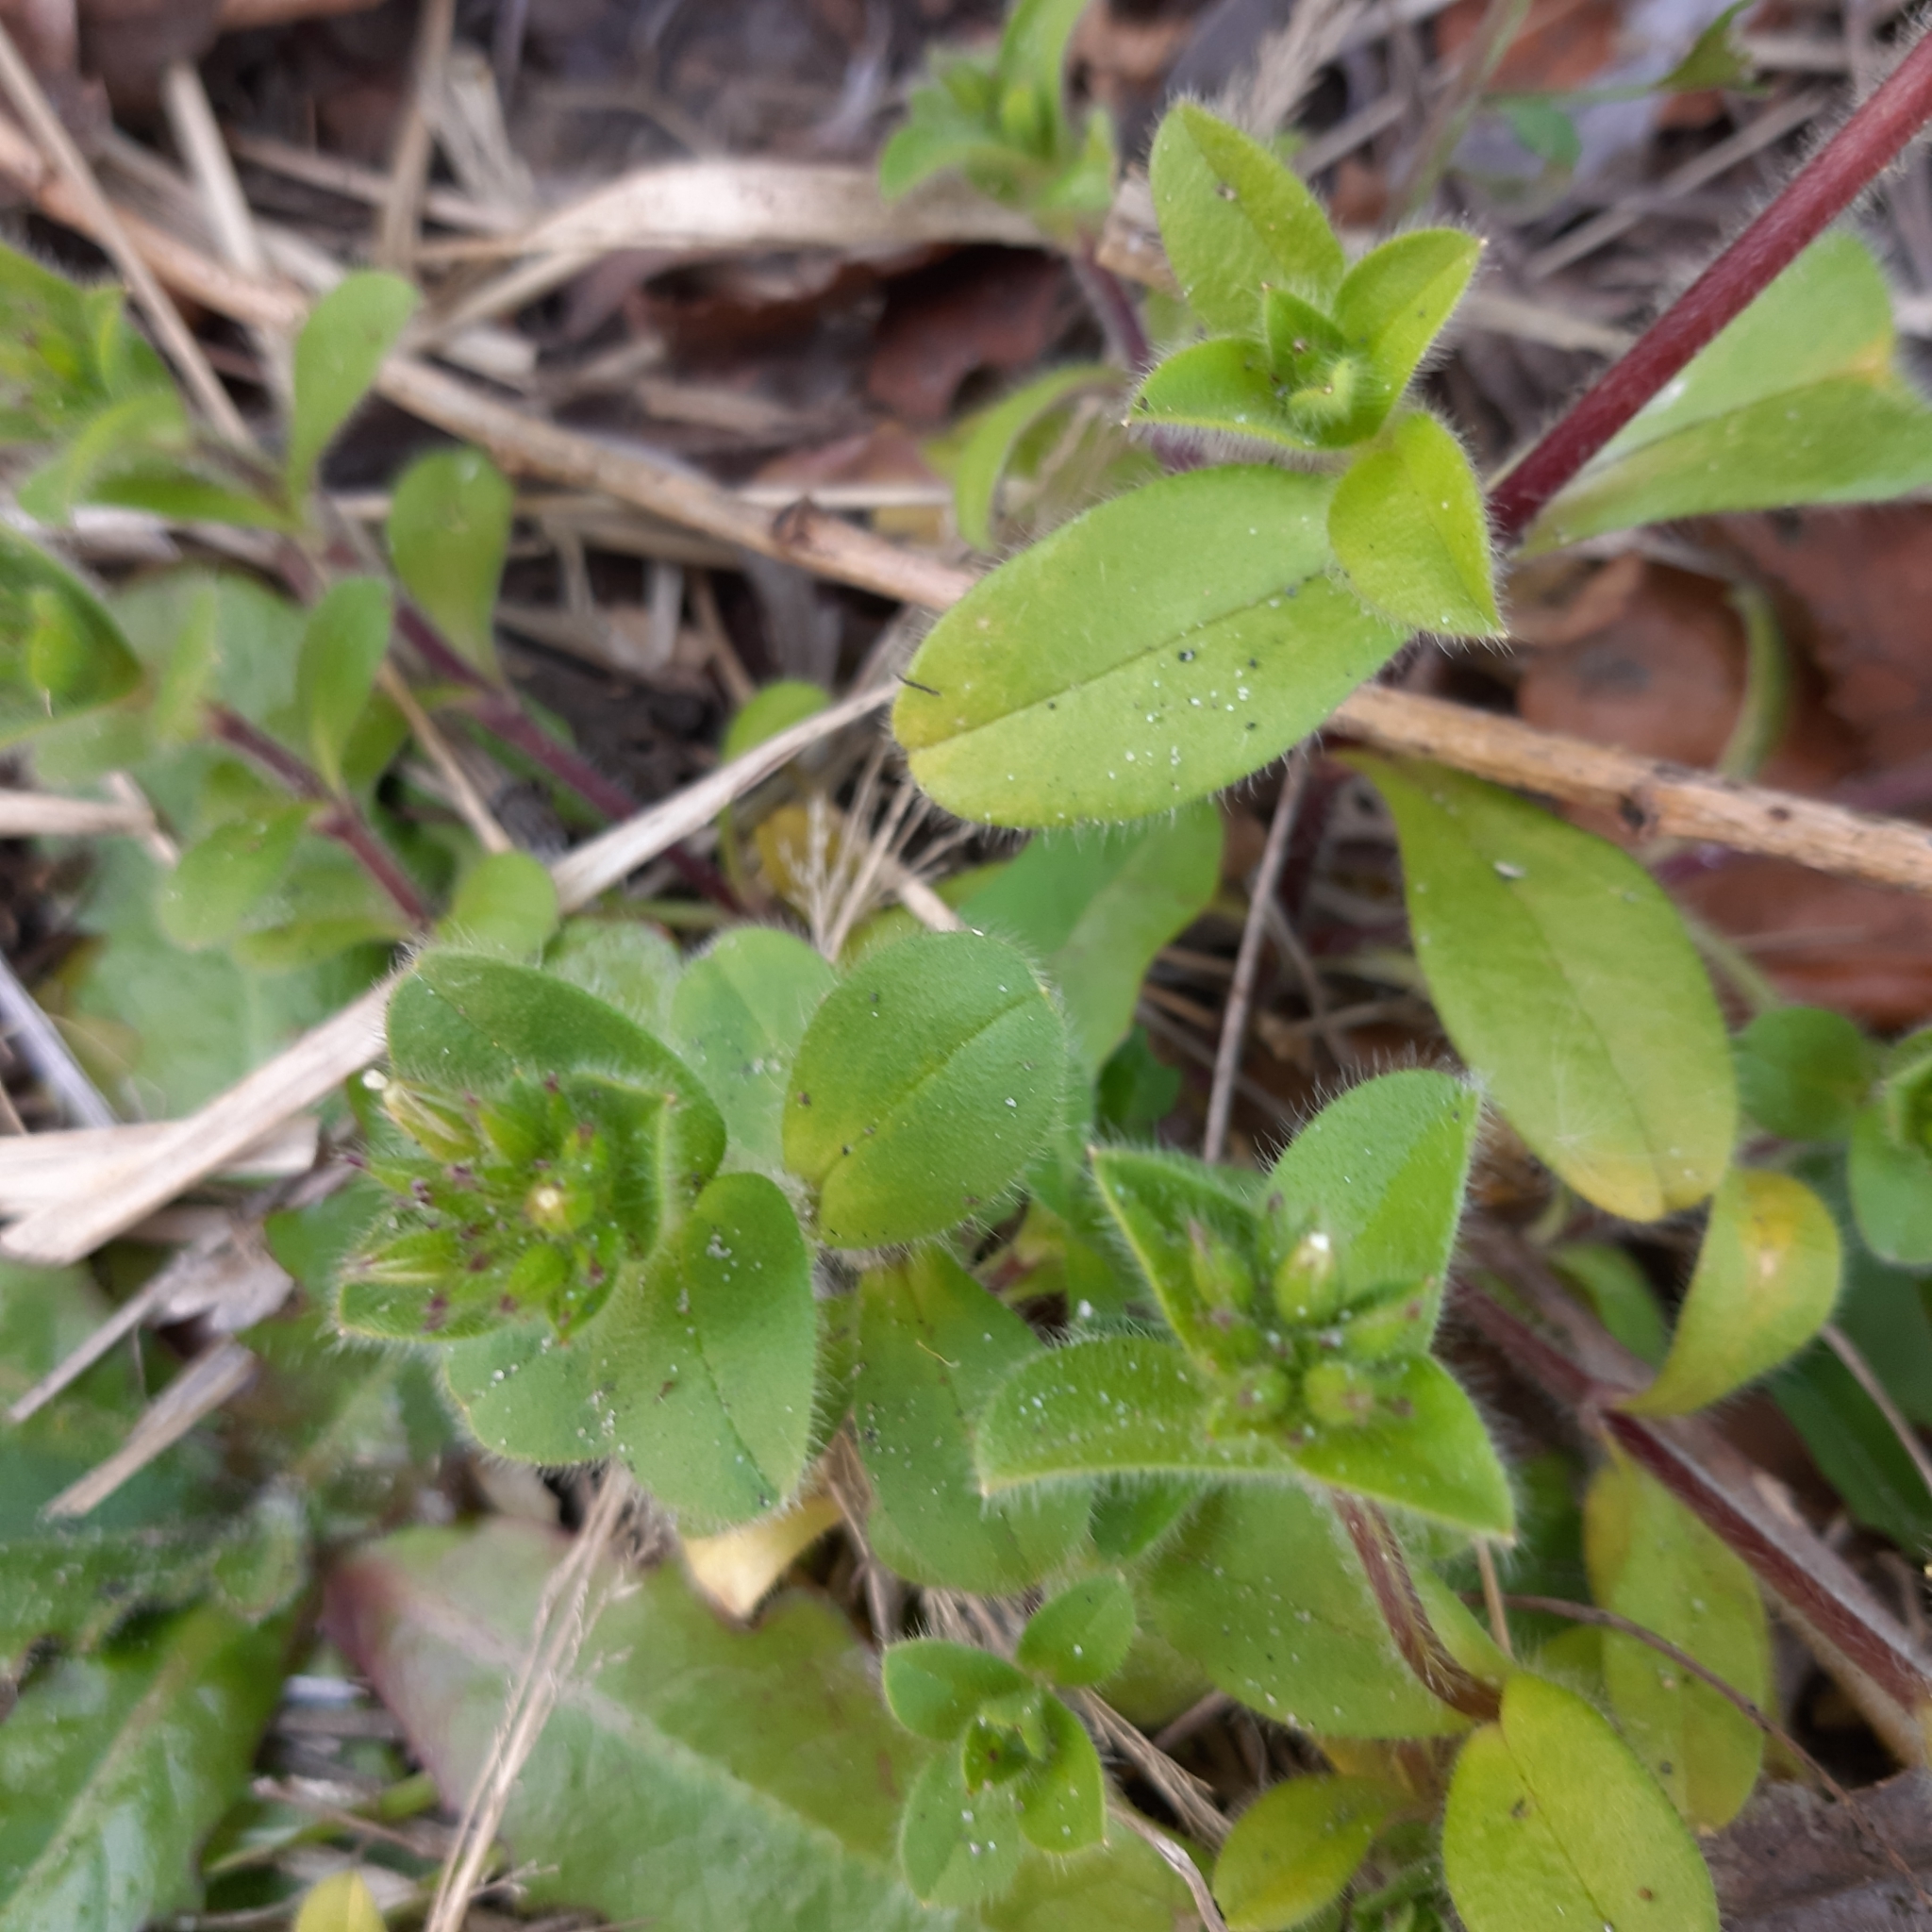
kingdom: Plantae
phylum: Tracheophyta
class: Magnoliopsida
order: Caryophyllales
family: Caryophyllaceae
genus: Cerastium
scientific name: Cerastium glomeratum
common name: Sticky chickweed
